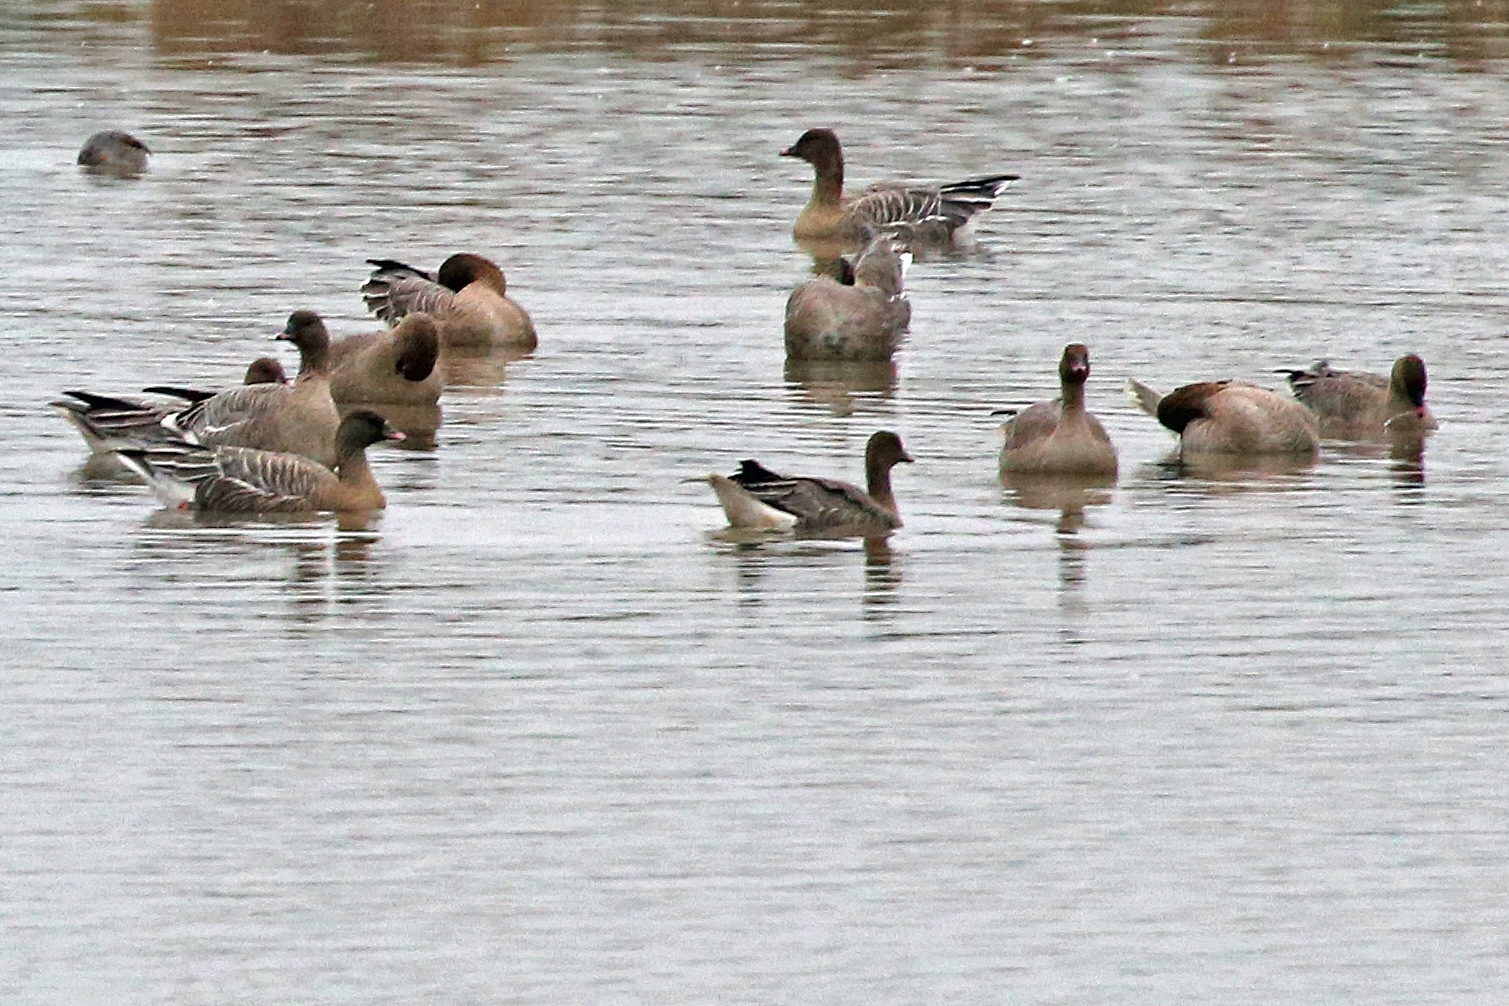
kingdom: Animalia
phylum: Chordata
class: Aves
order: Anseriformes
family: Anatidae
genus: Anser
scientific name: Anser brachyrhynchus
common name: Pink-footed goose
